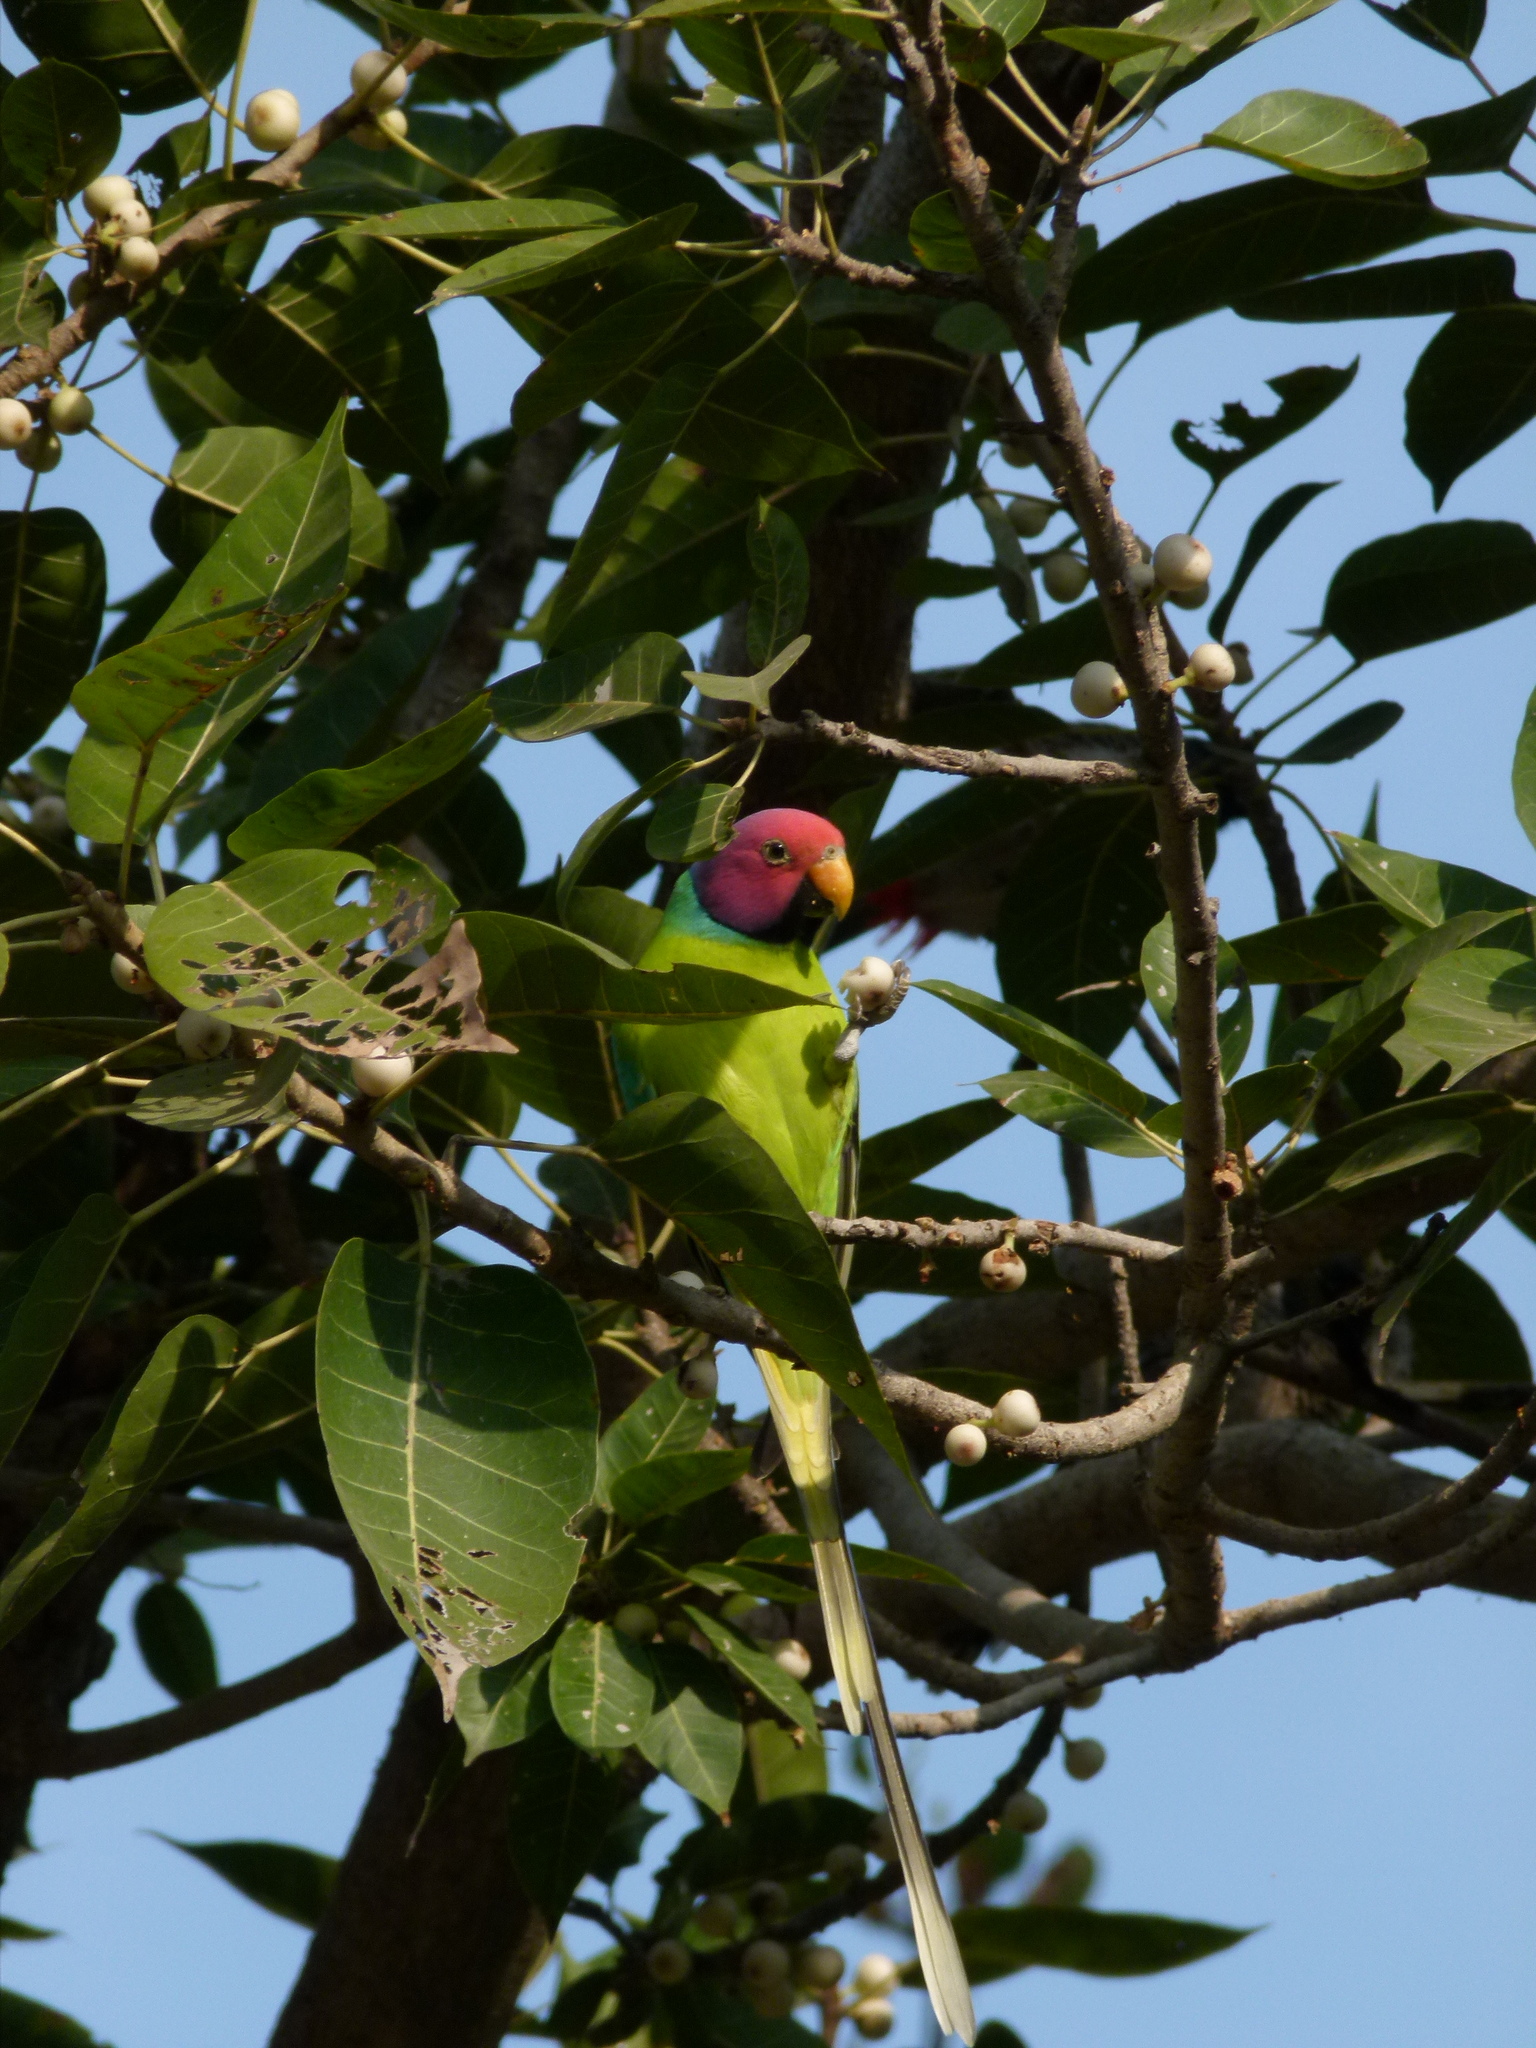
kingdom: Animalia
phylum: Chordata
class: Aves
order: Psittaciformes
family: Psittacidae
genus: Psittacula
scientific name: Psittacula cyanocephala
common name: Plum-headed parakeet
